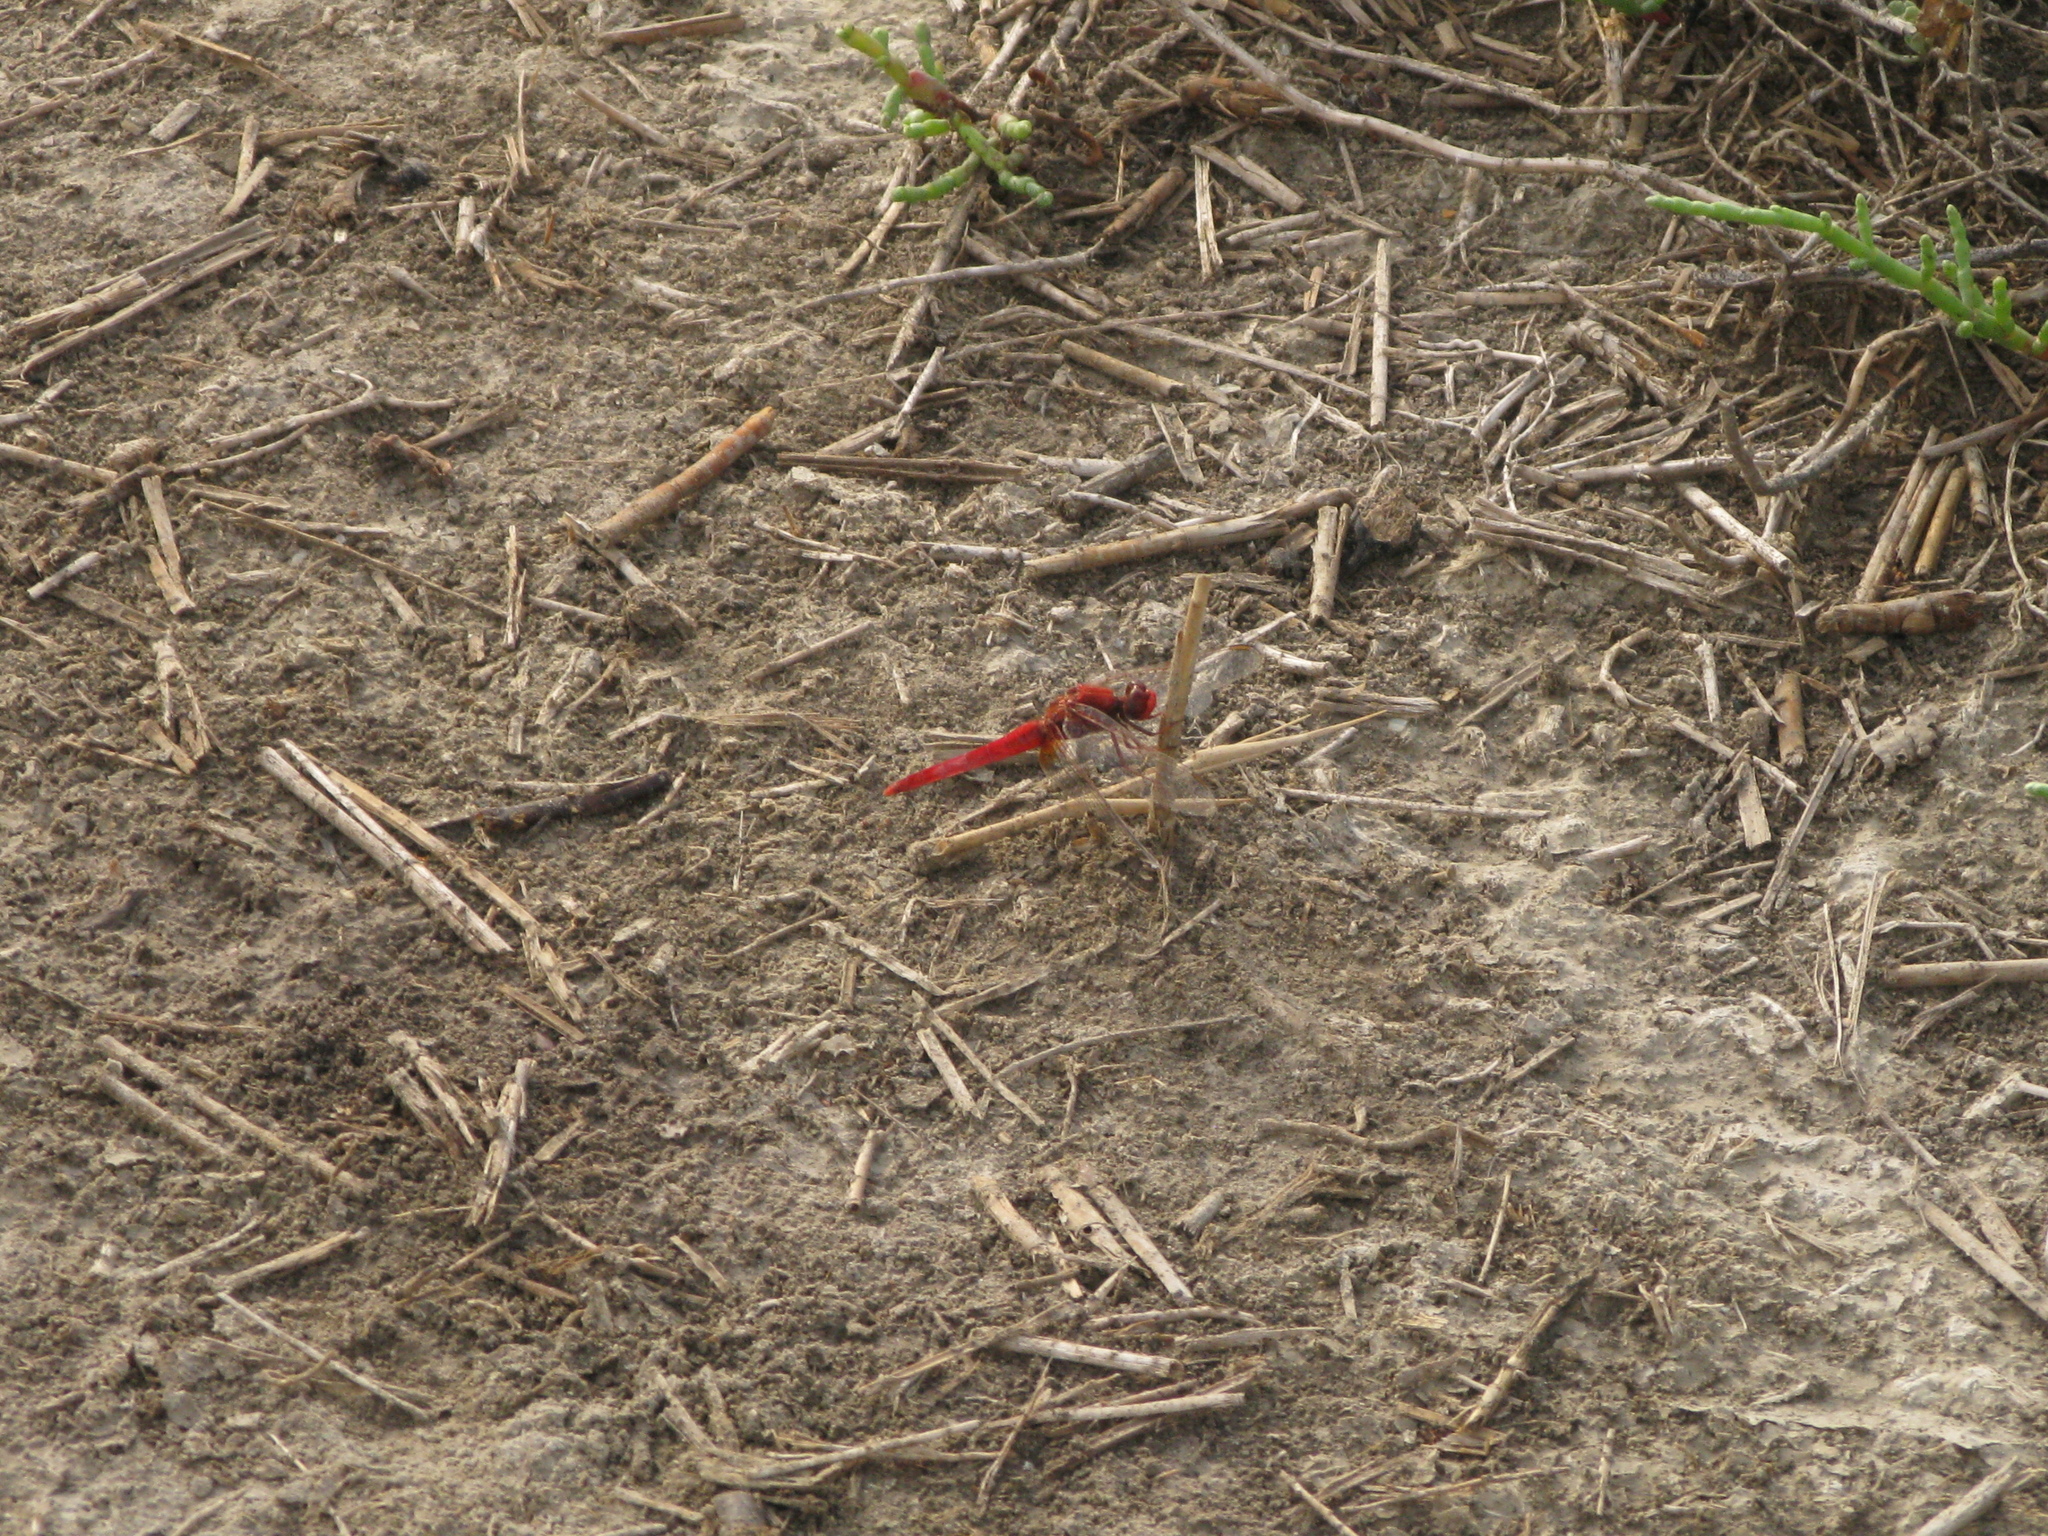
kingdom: Animalia
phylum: Arthropoda
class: Insecta
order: Odonata
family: Libellulidae
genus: Crocothemis
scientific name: Crocothemis erythraea
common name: Scarlet dragonfly
